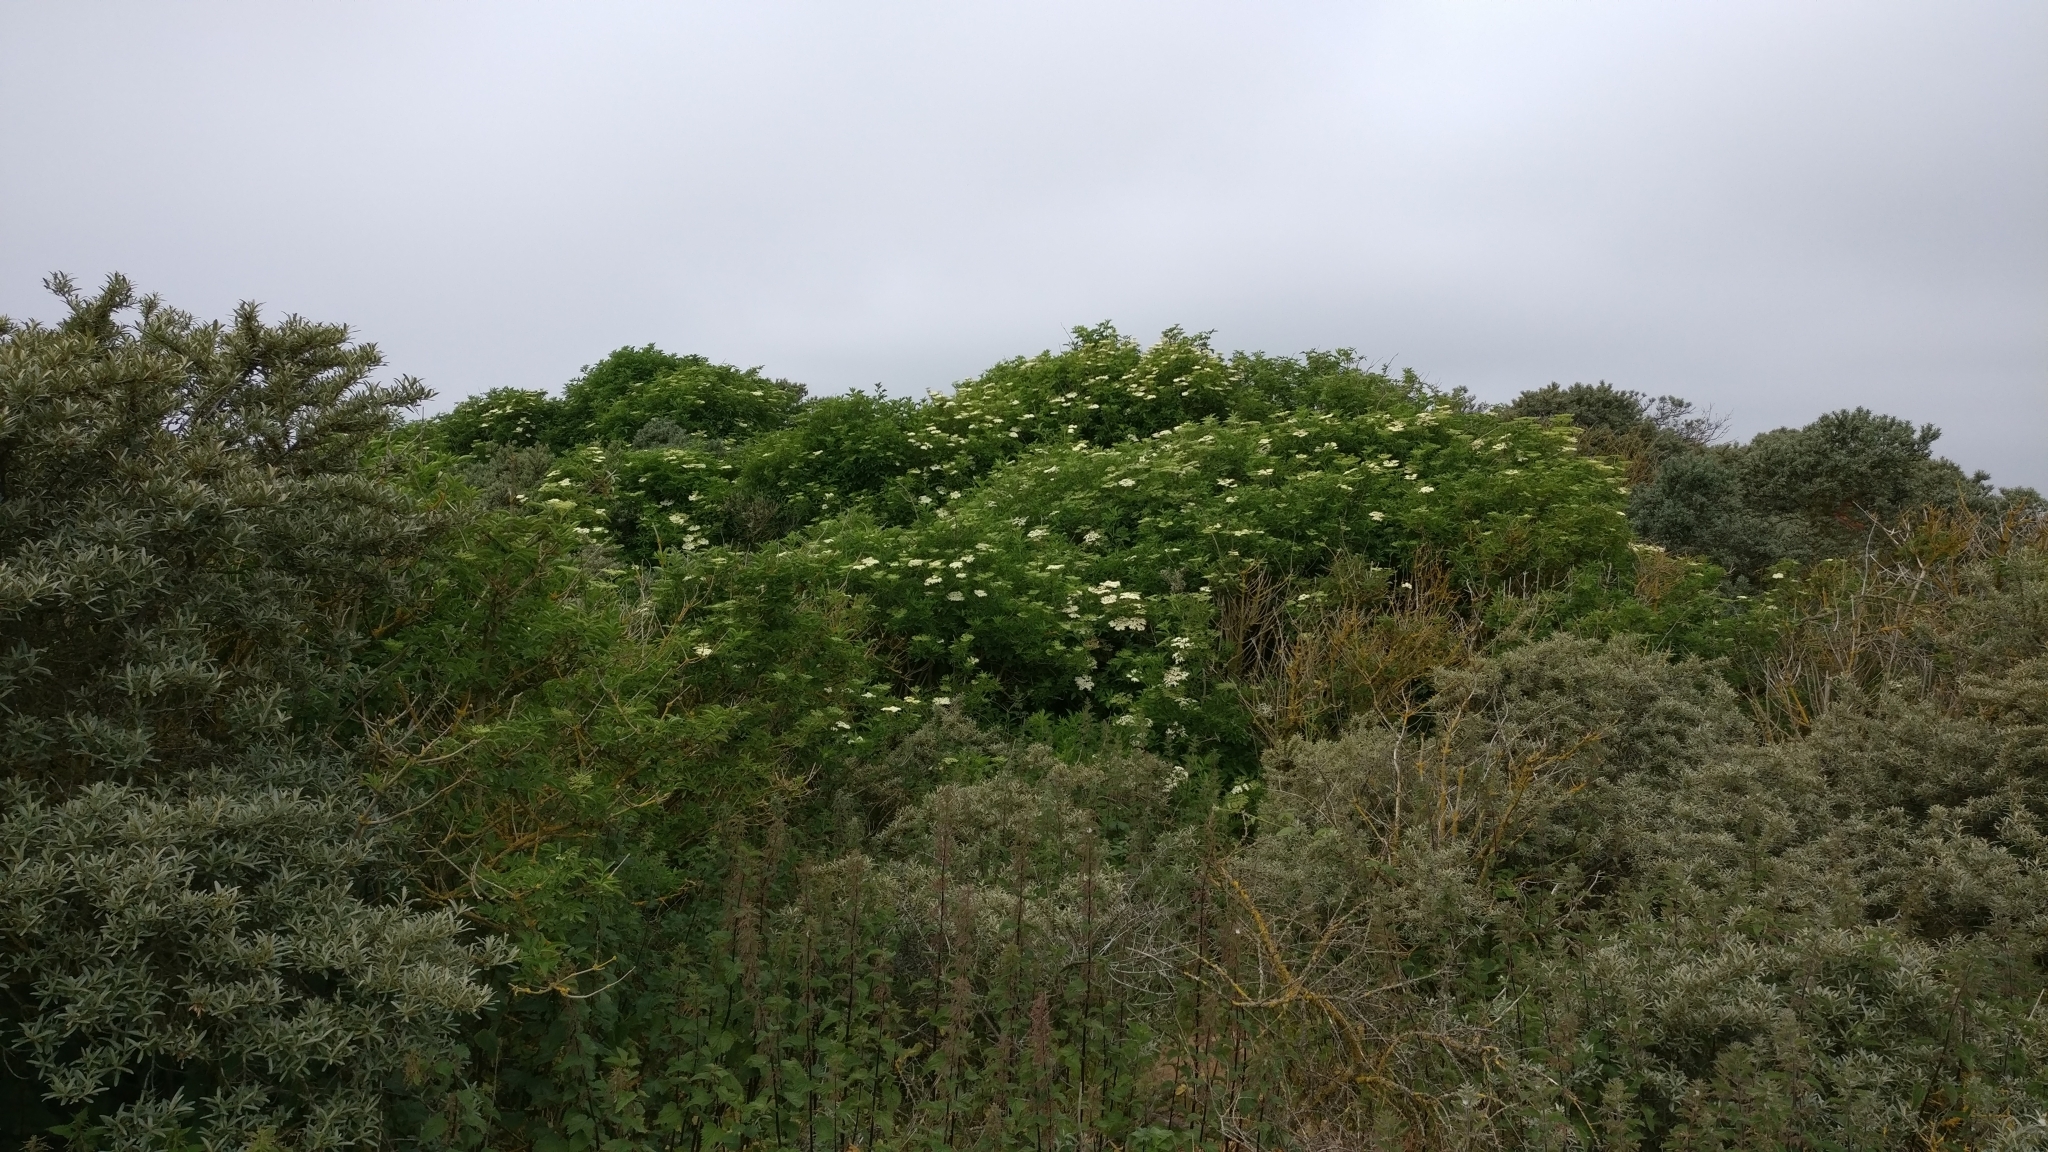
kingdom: Plantae
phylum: Tracheophyta
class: Magnoliopsida
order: Dipsacales
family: Viburnaceae
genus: Sambucus
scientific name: Sambucus nigra
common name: Elder
